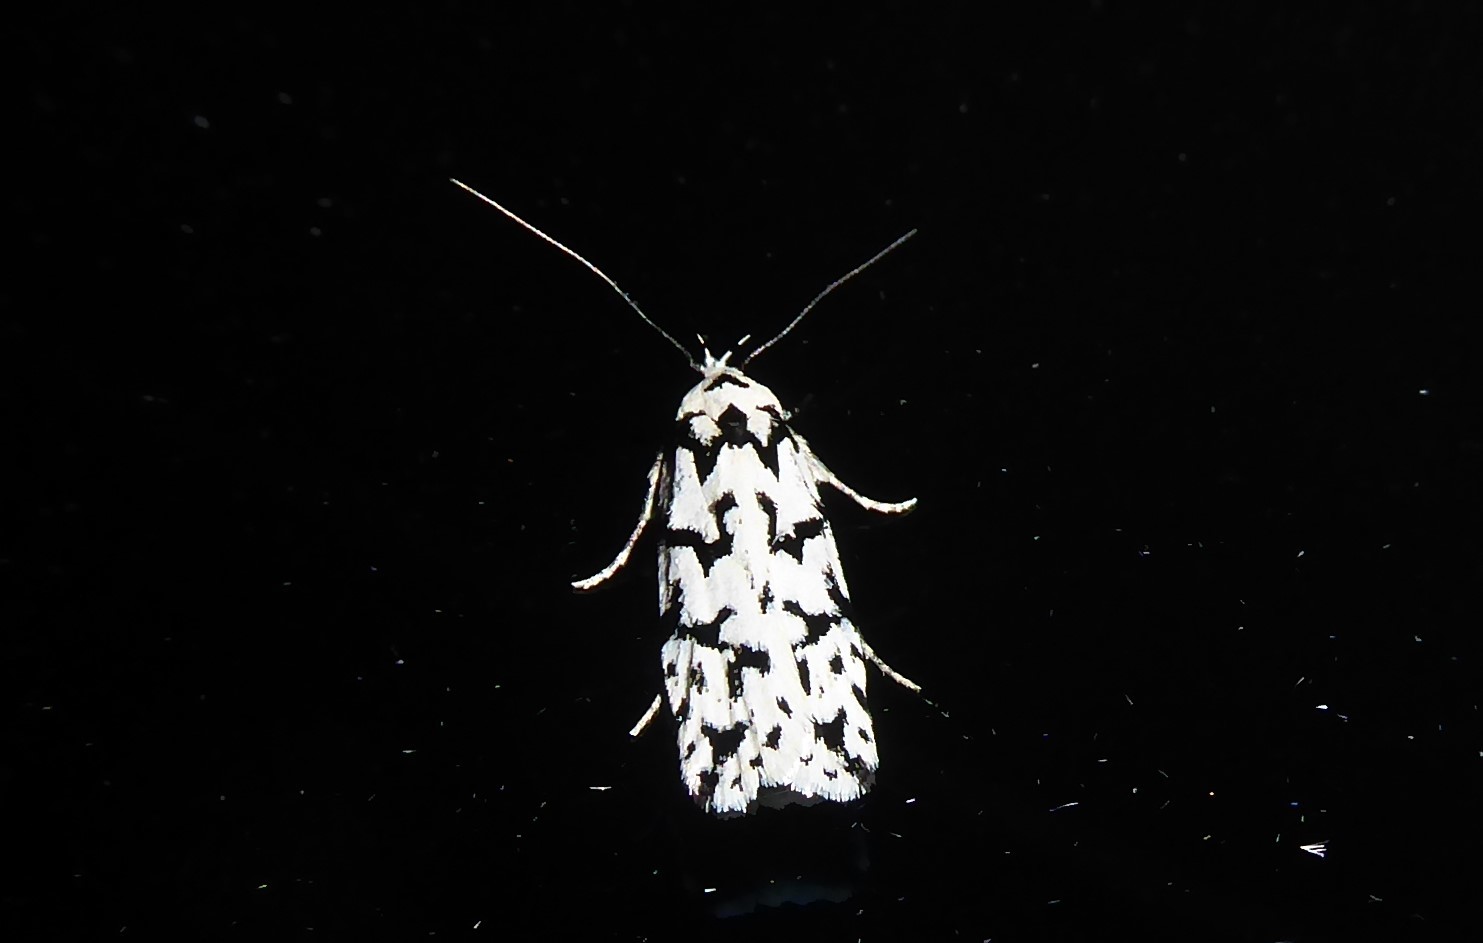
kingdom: Animalia
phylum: Arthropoda
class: Insecta
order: Lepidoptera
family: Oecophoridae
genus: Izatha
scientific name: Izatha katadiktya
